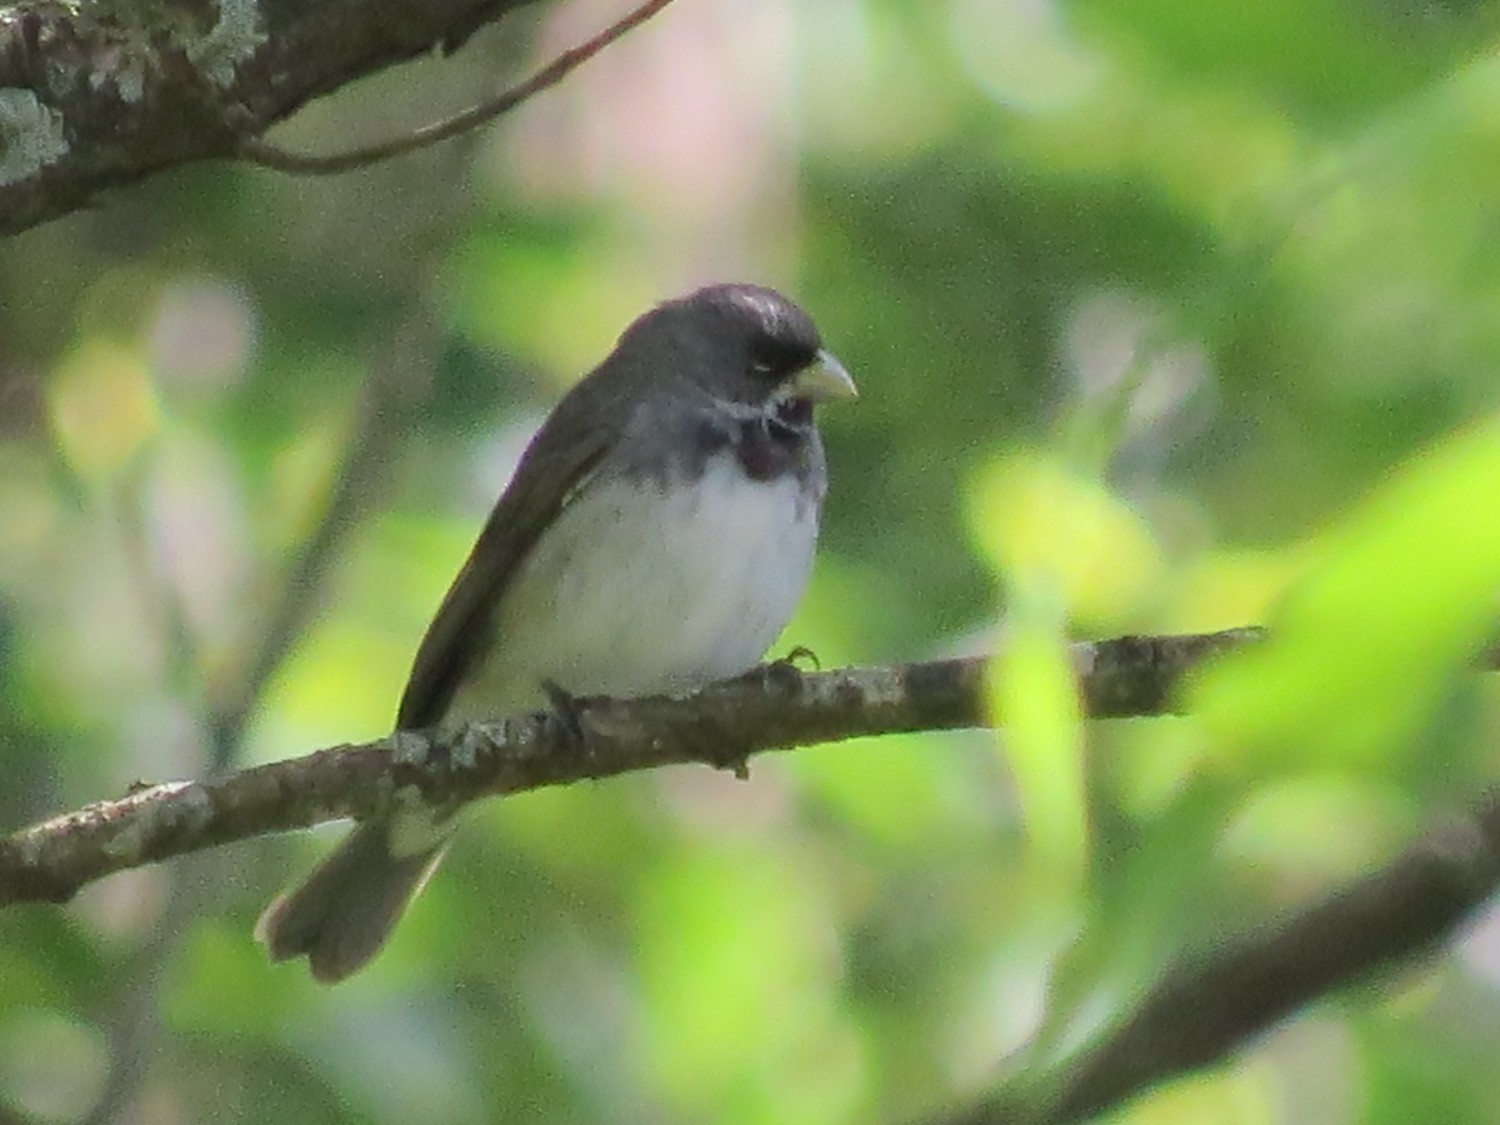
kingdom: Animalia
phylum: Chordata
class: Aves
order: Passeriformes
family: Thraupidae
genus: Sporophila
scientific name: Sporophila caerulescens
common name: Double-collared seedeater
